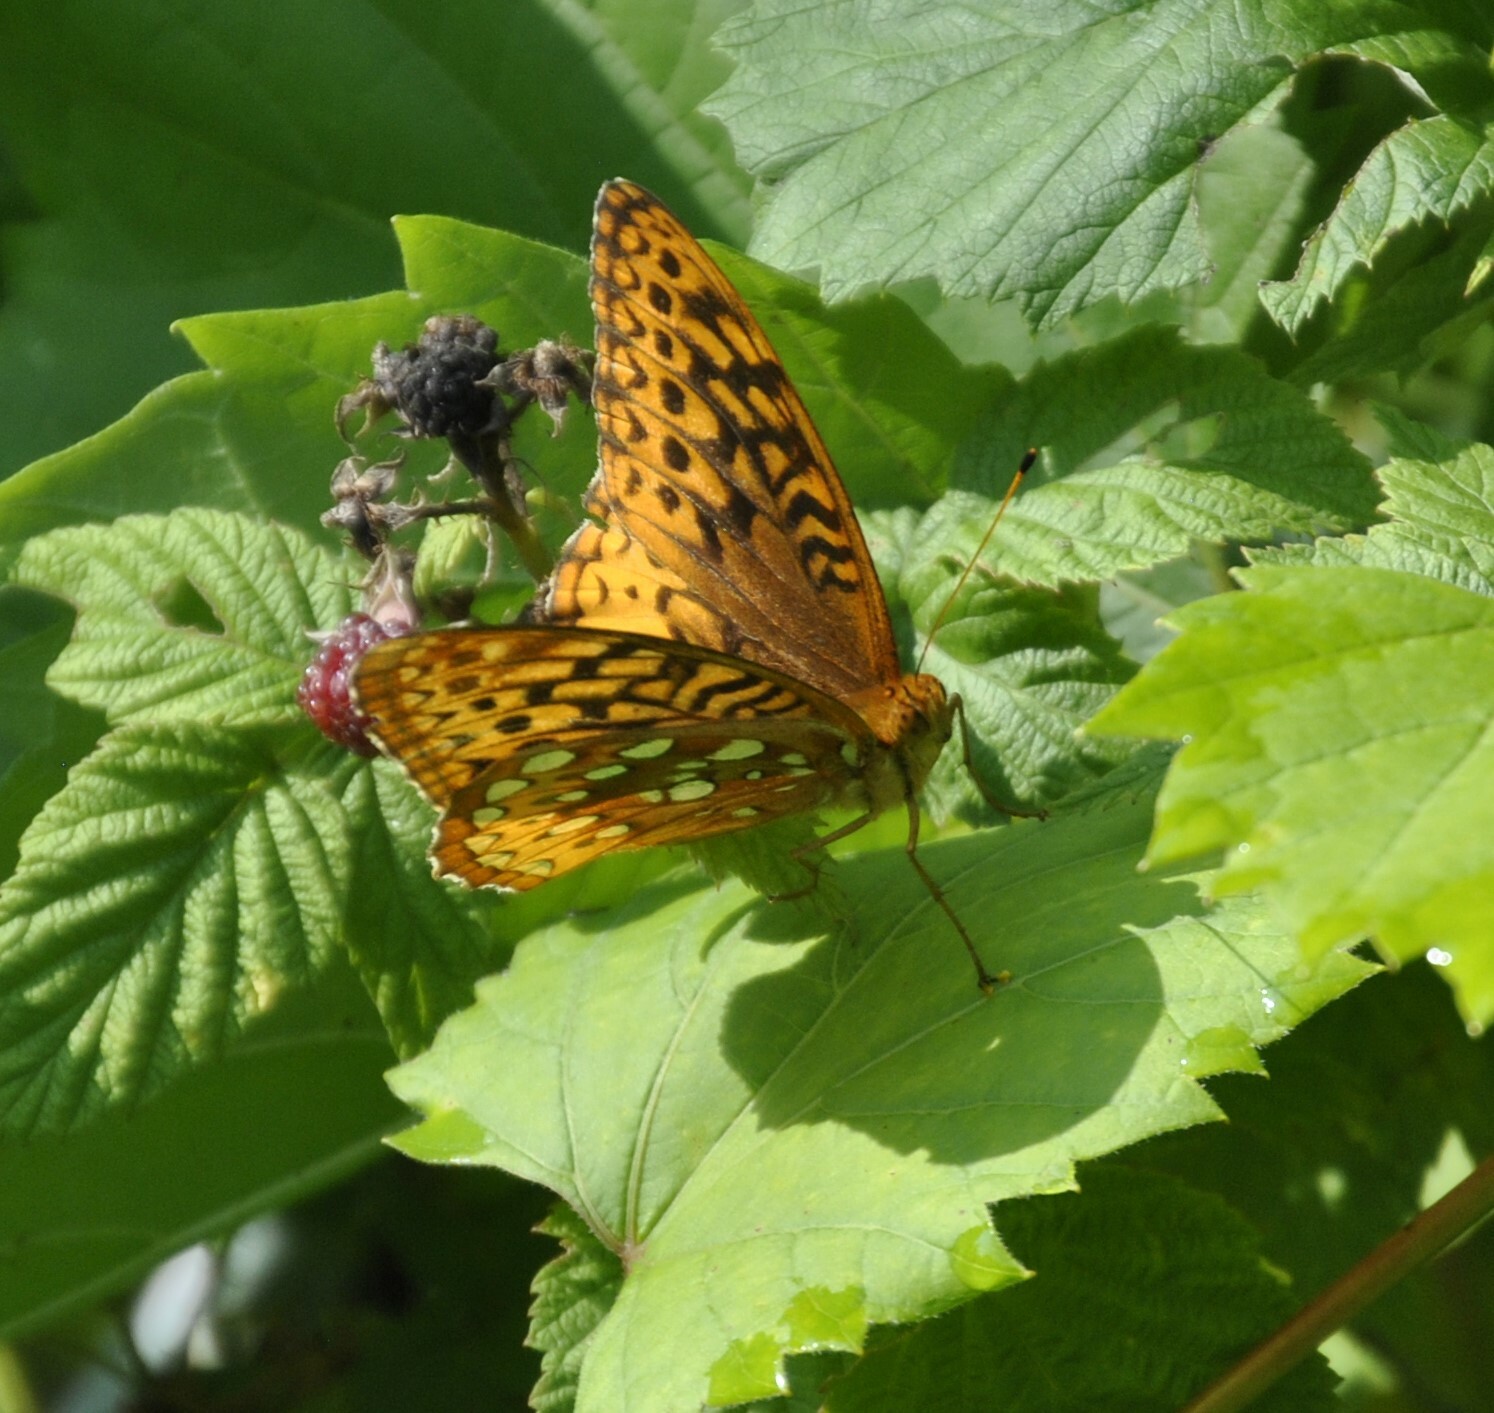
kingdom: Animalia
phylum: Arthropoda
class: Insecta
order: Lepidoptera
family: Nymphalidae
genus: Speyeria
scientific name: Speyeria cybele
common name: Great spangled fritillary
